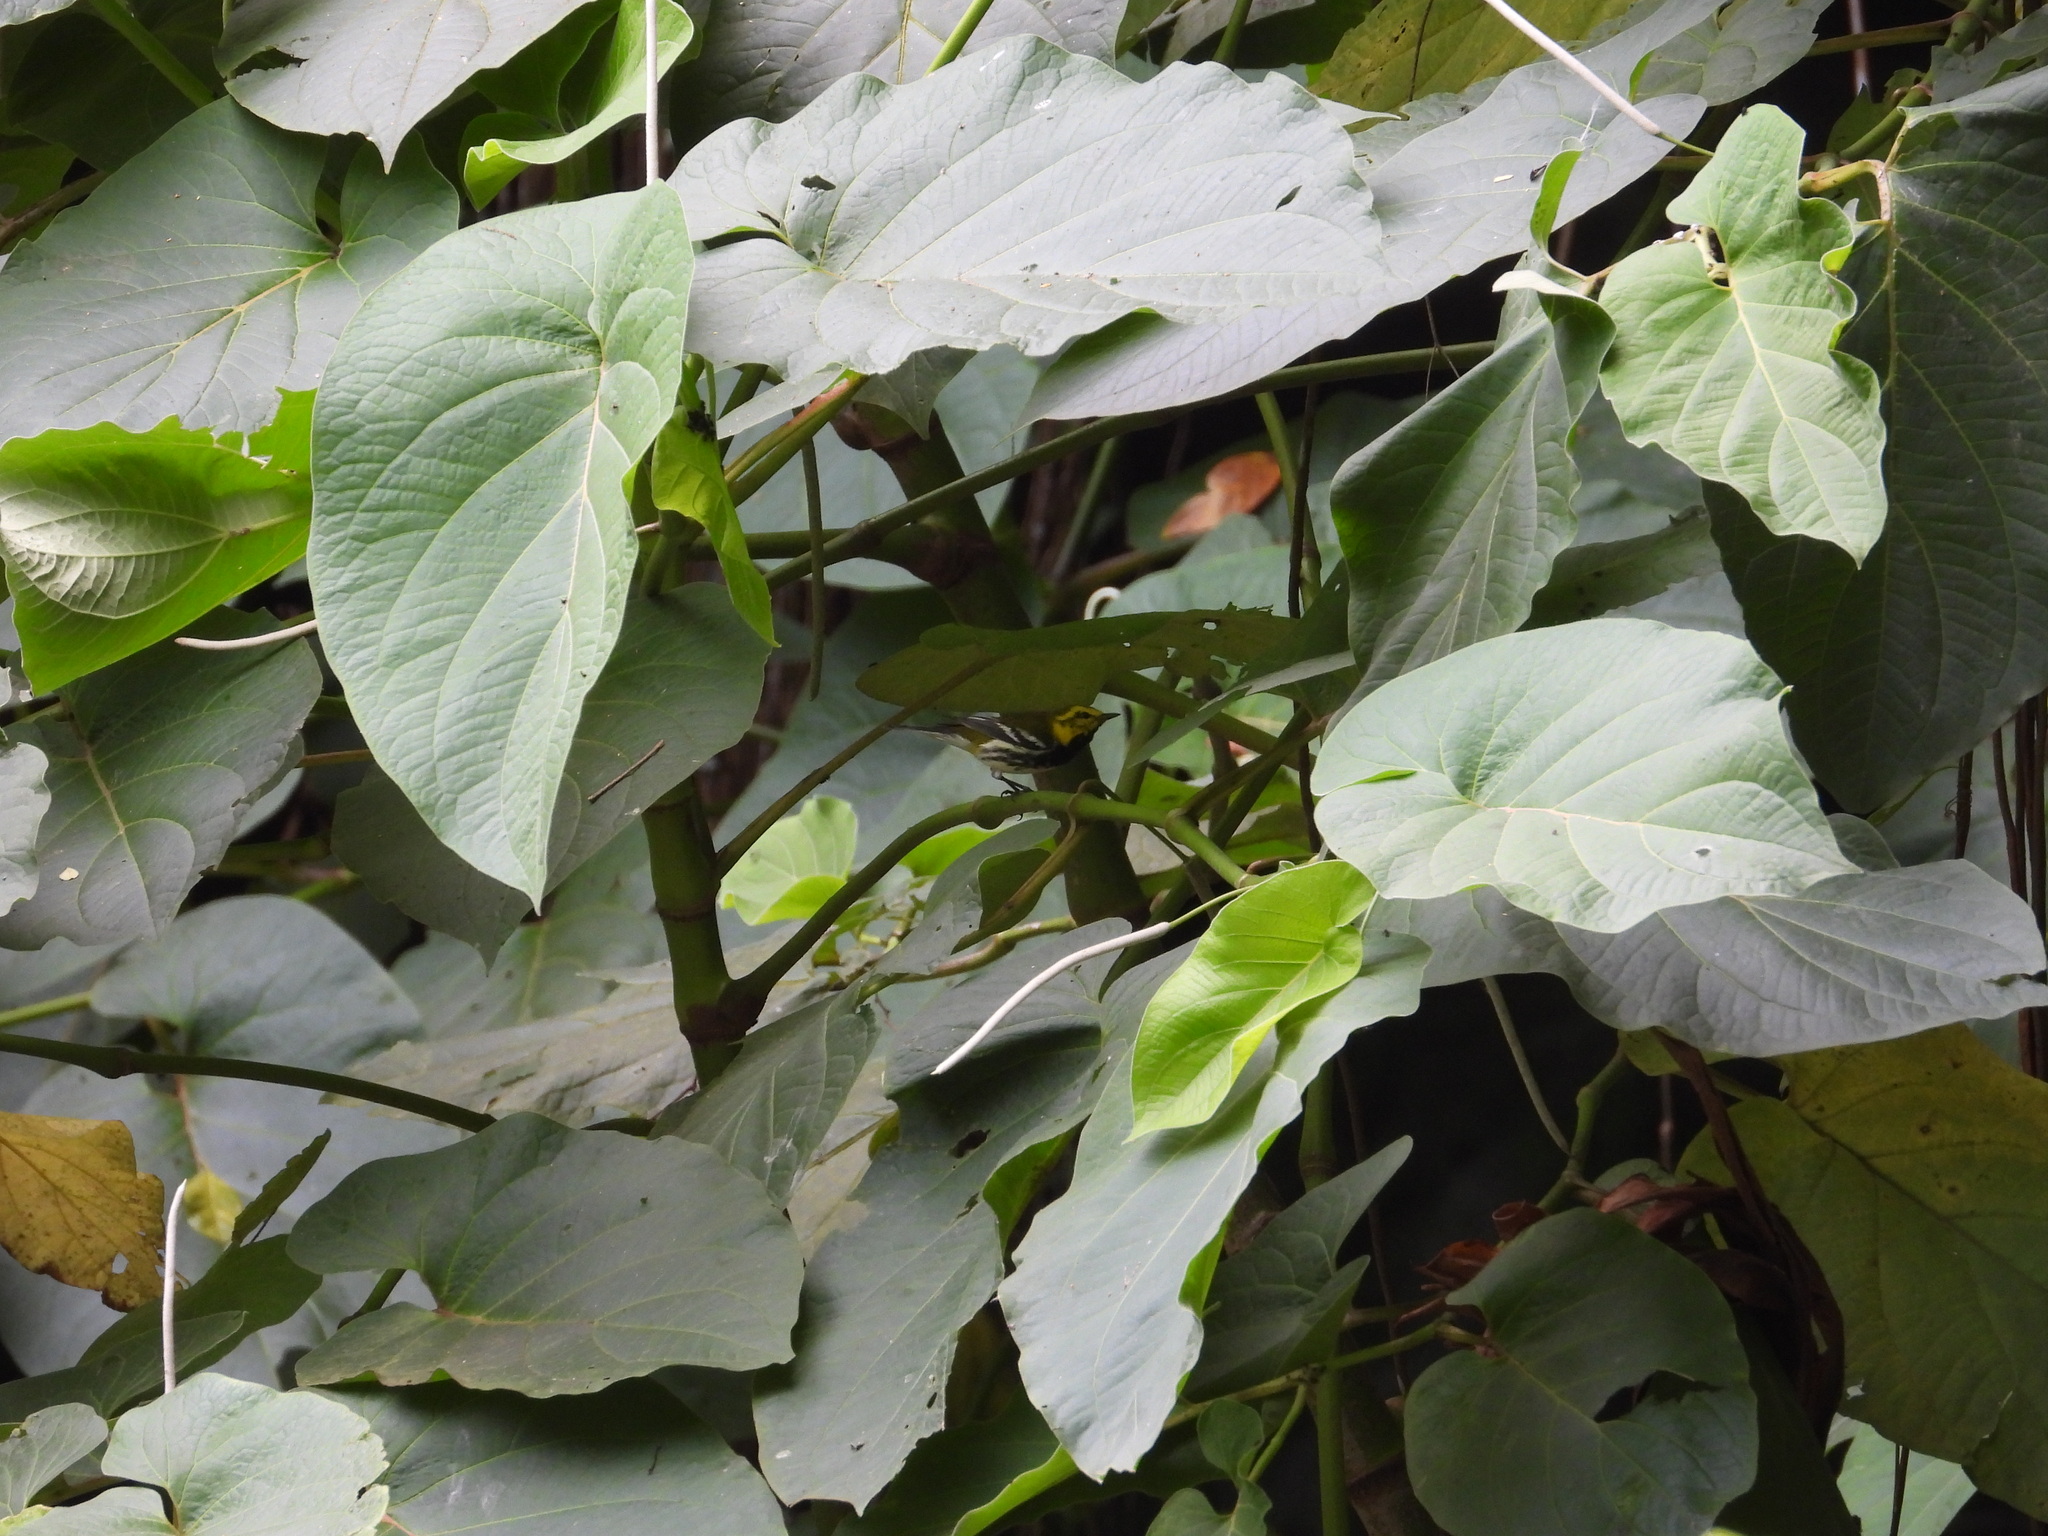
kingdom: Animalia
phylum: Chordata
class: Aves
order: Passeriformes
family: Parulidae
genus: Setophaga
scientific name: Setophaga virens
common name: Black-throated green warbler
